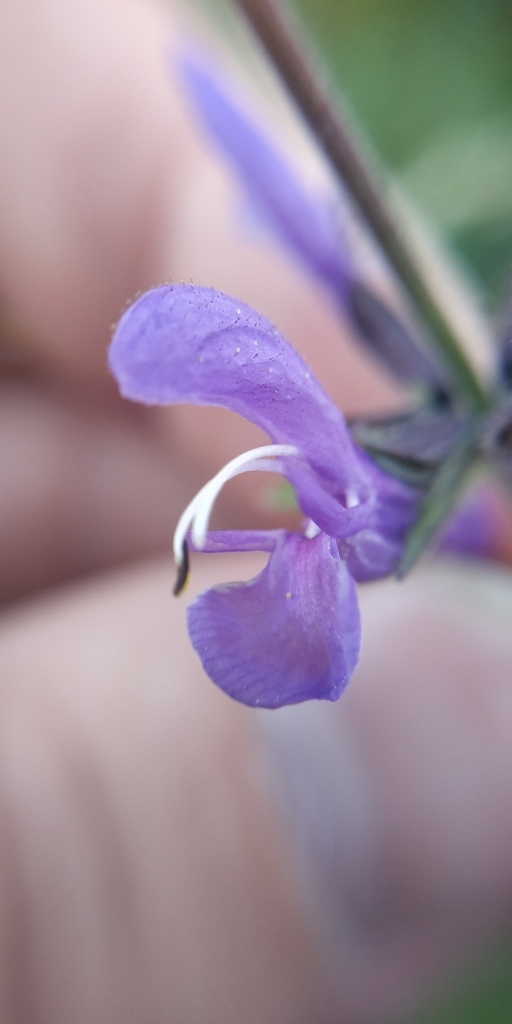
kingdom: Plantae
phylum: Tracheophyta
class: Magnoliopsida
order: Lamiales
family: Lamiaceae
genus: Salvia
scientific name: Salvia dumetorum
